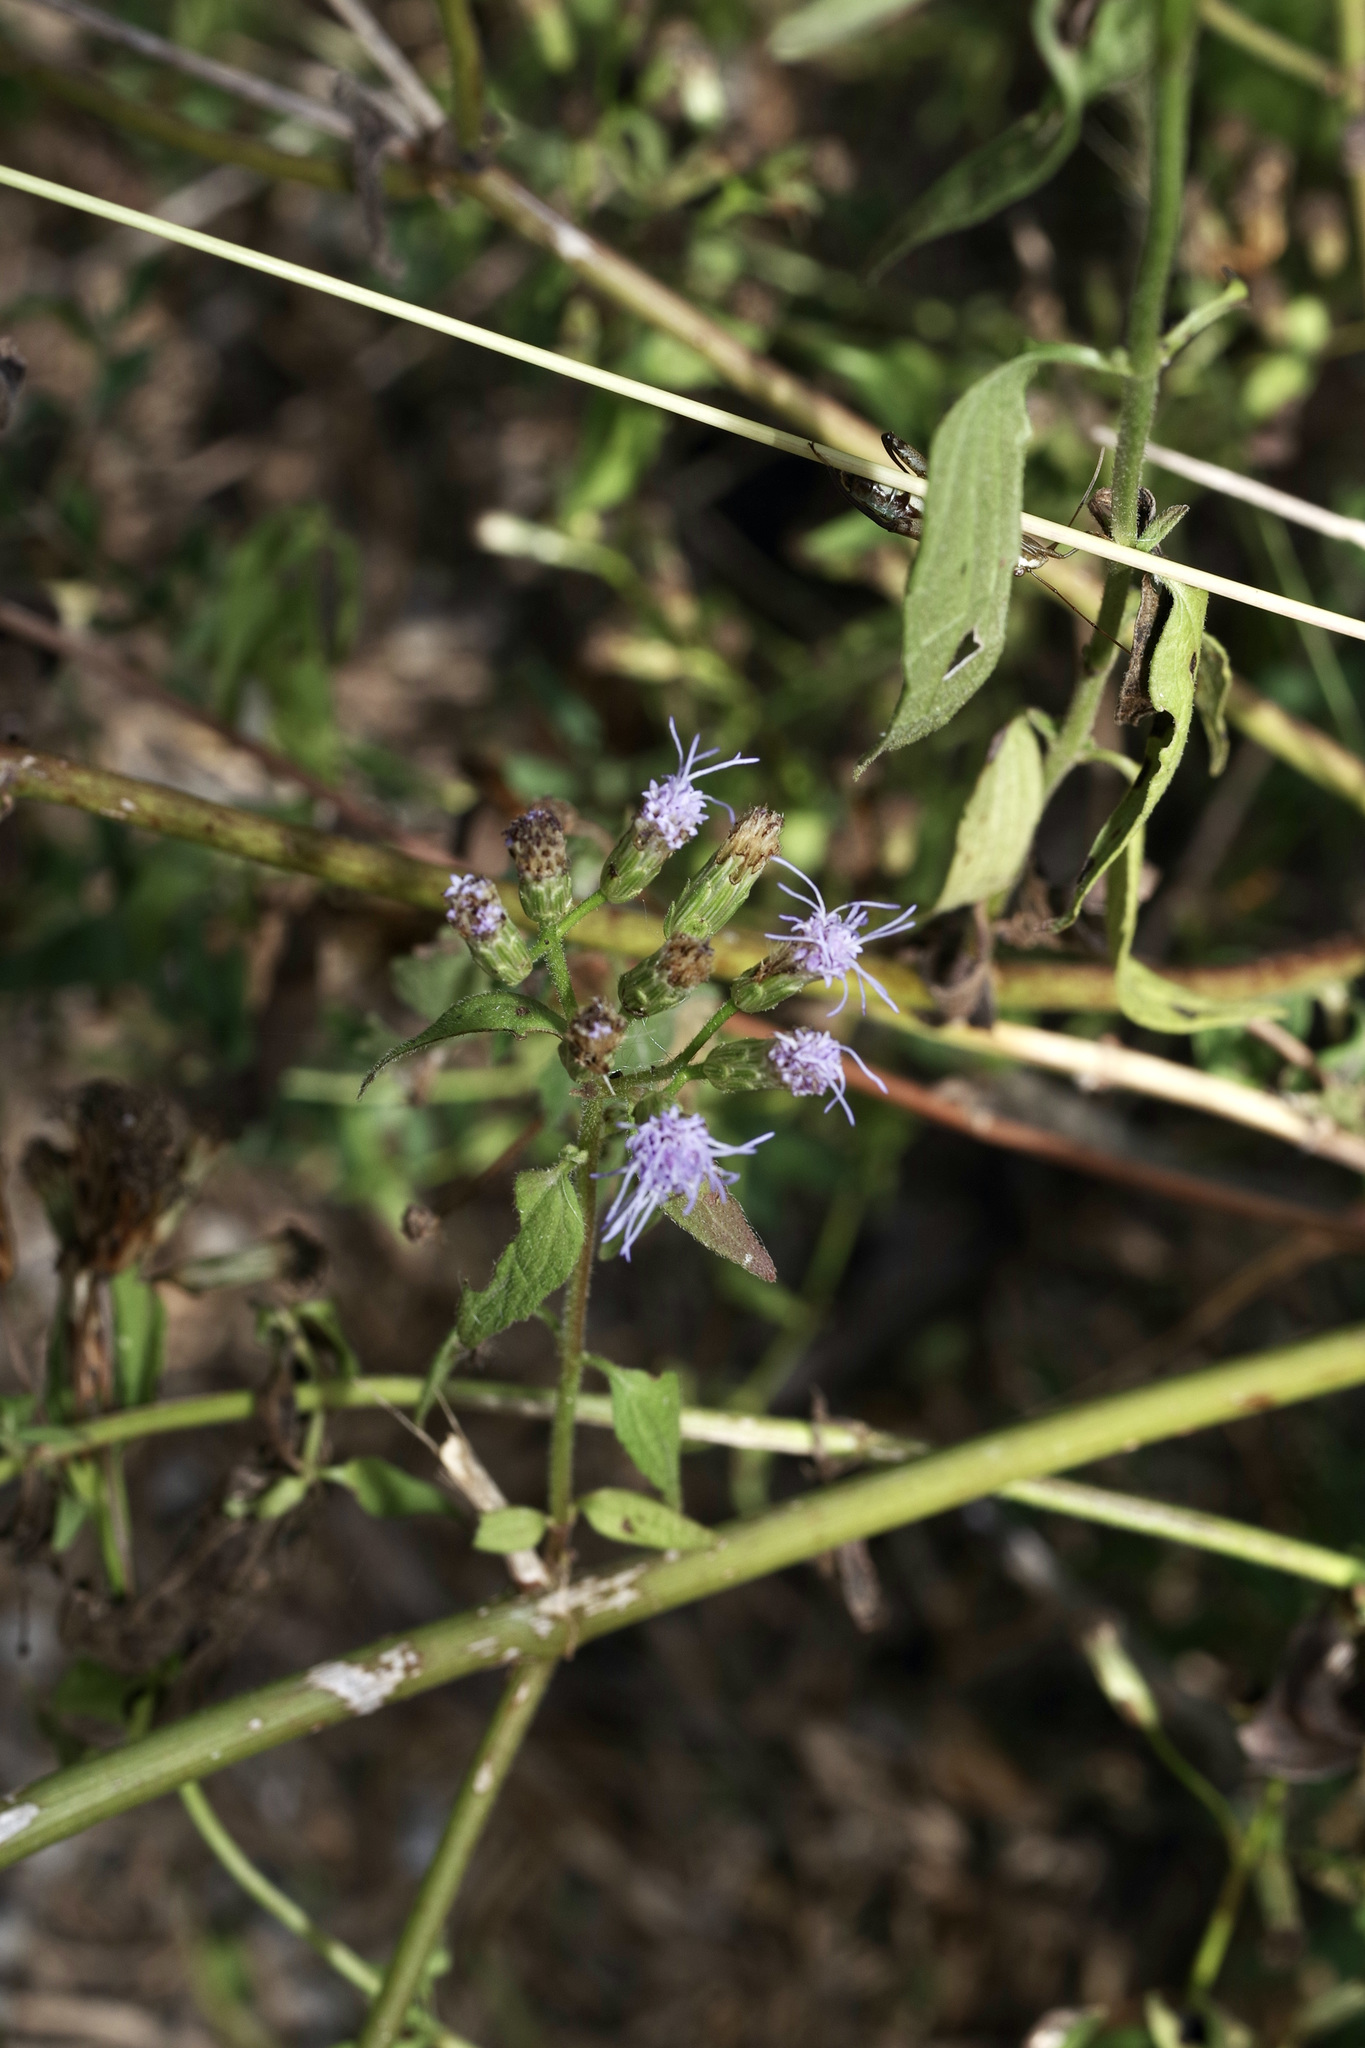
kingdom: Plantae
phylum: Tracheophyta
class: Magnoliopsida
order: Asterales
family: Asteraceae
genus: Chromolaena
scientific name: Chromolaena odorata
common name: Siamweed
